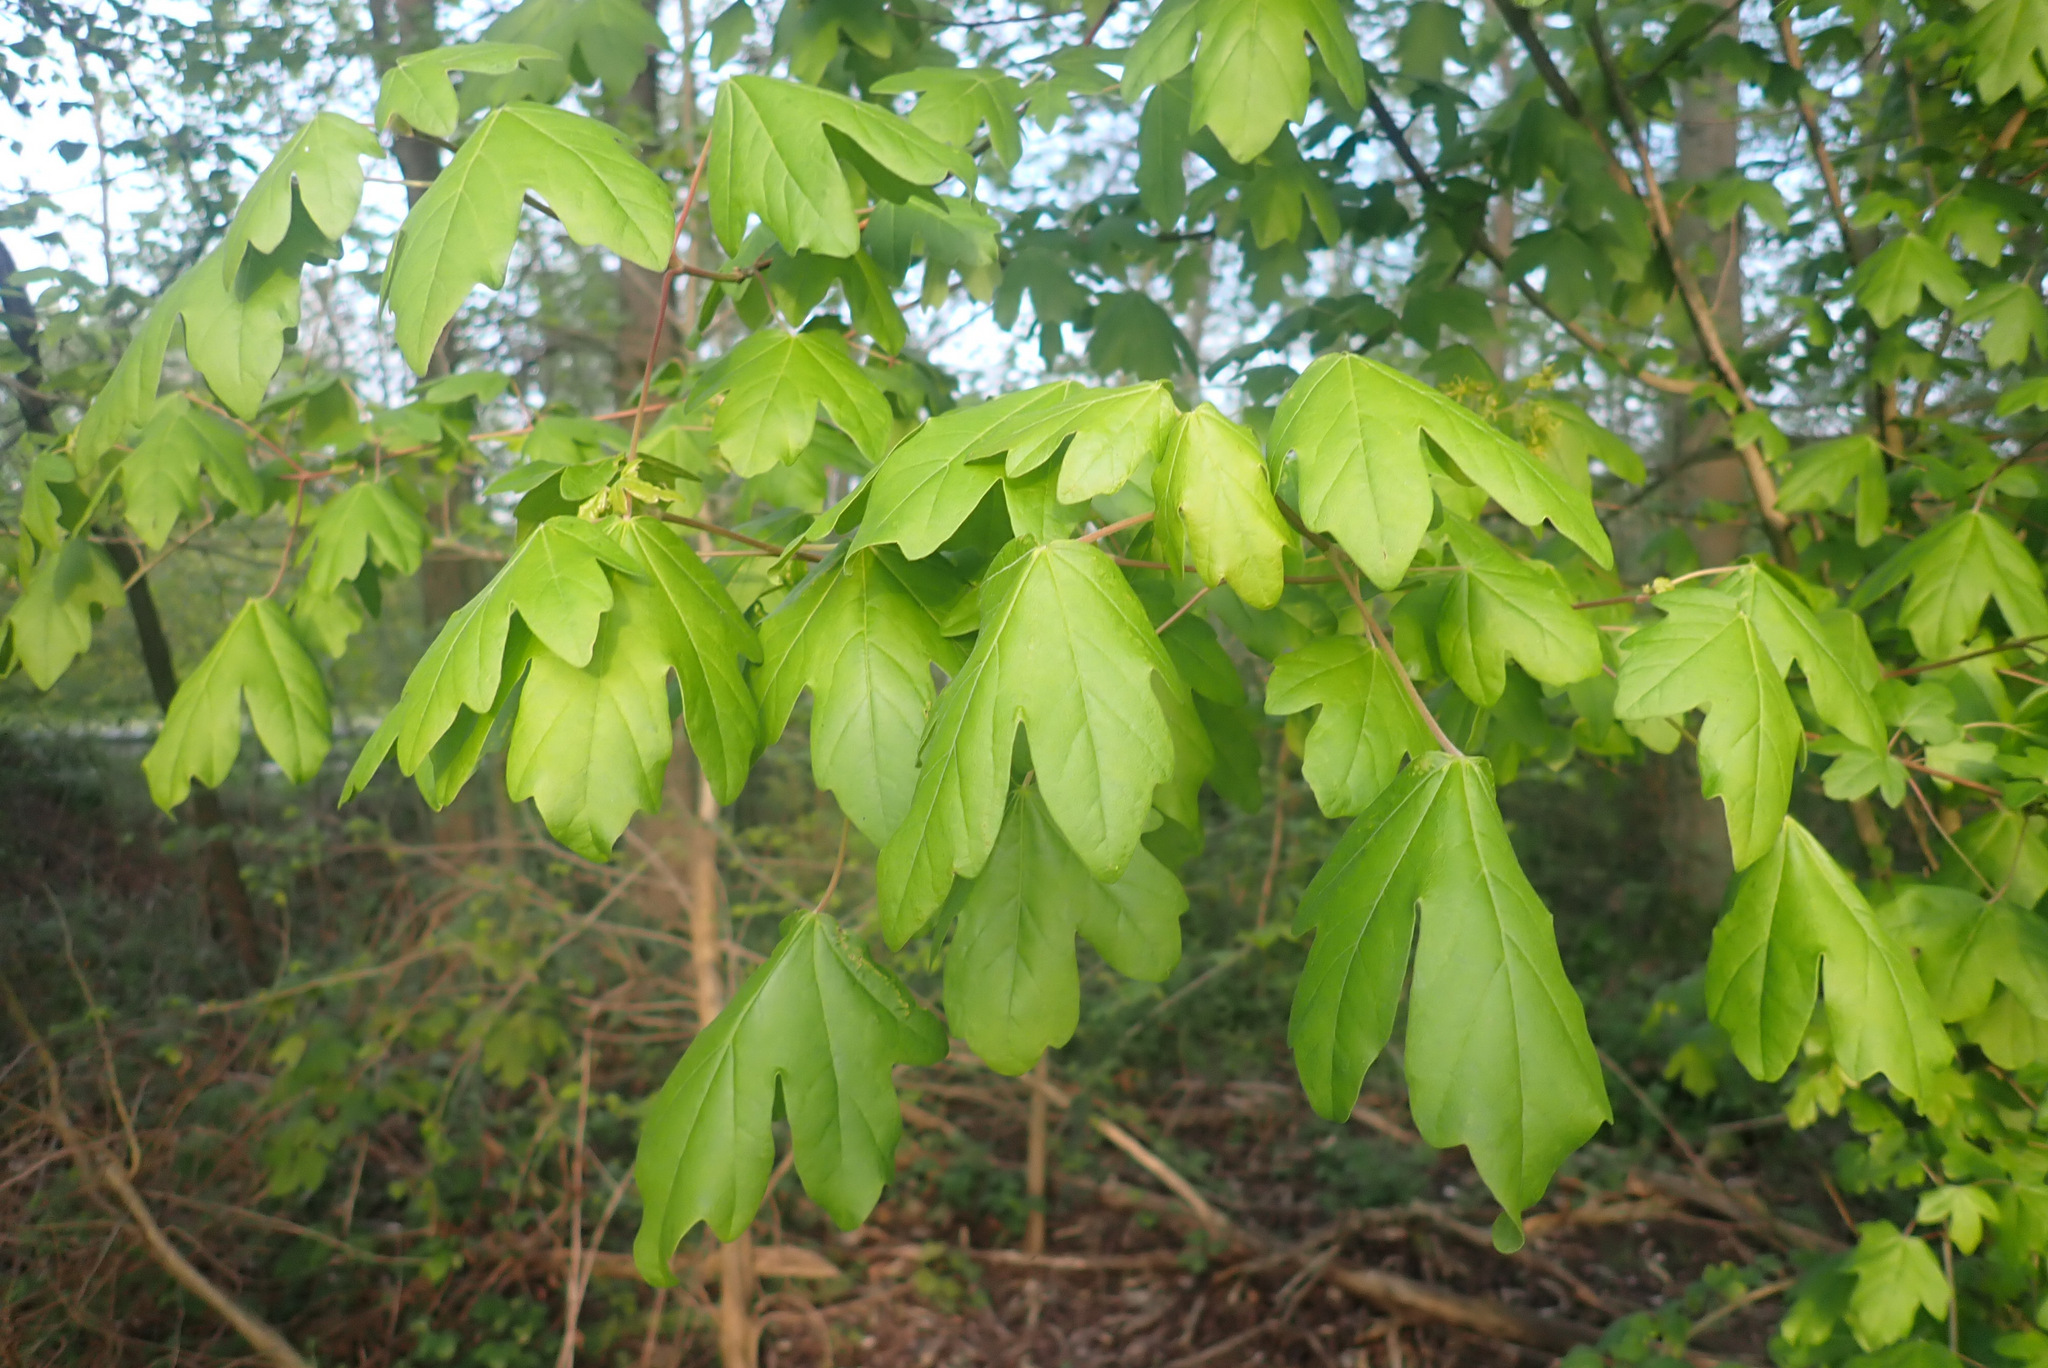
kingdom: Plantae
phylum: Tracheophyta
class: Magnoliopsida
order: Sapindales
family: Sapindaceae
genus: Acer
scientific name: Acer campestre
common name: Field maple
